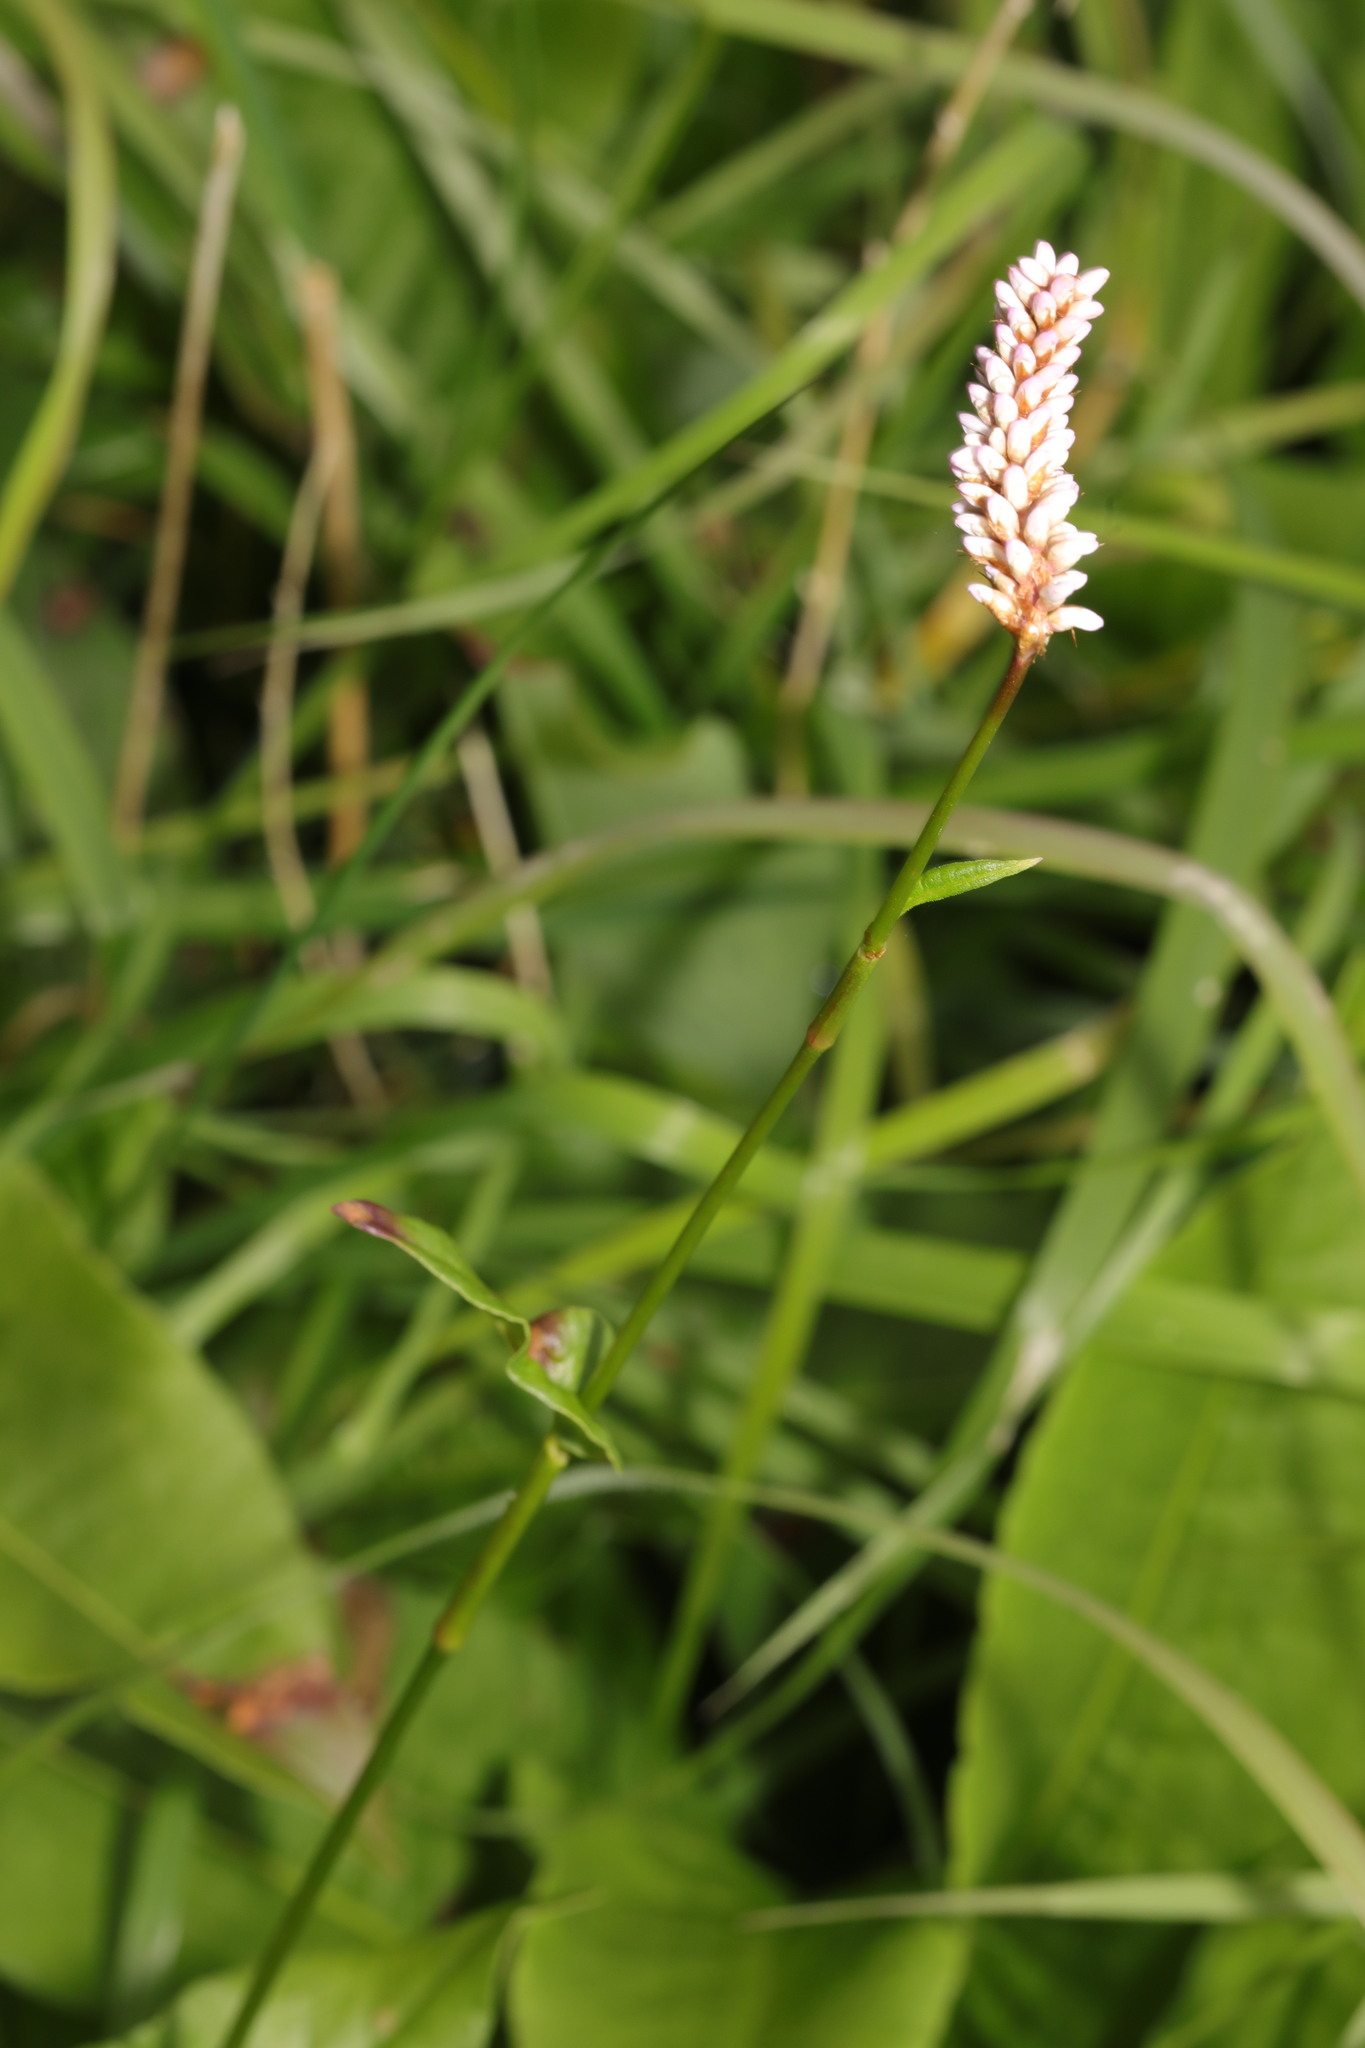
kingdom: Plantae
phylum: Tracheophyta
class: Magnoliopsida
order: Caryophyllales
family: Polygonaceae
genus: Bistorta
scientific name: Bistorta officinalis
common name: Common bistort
